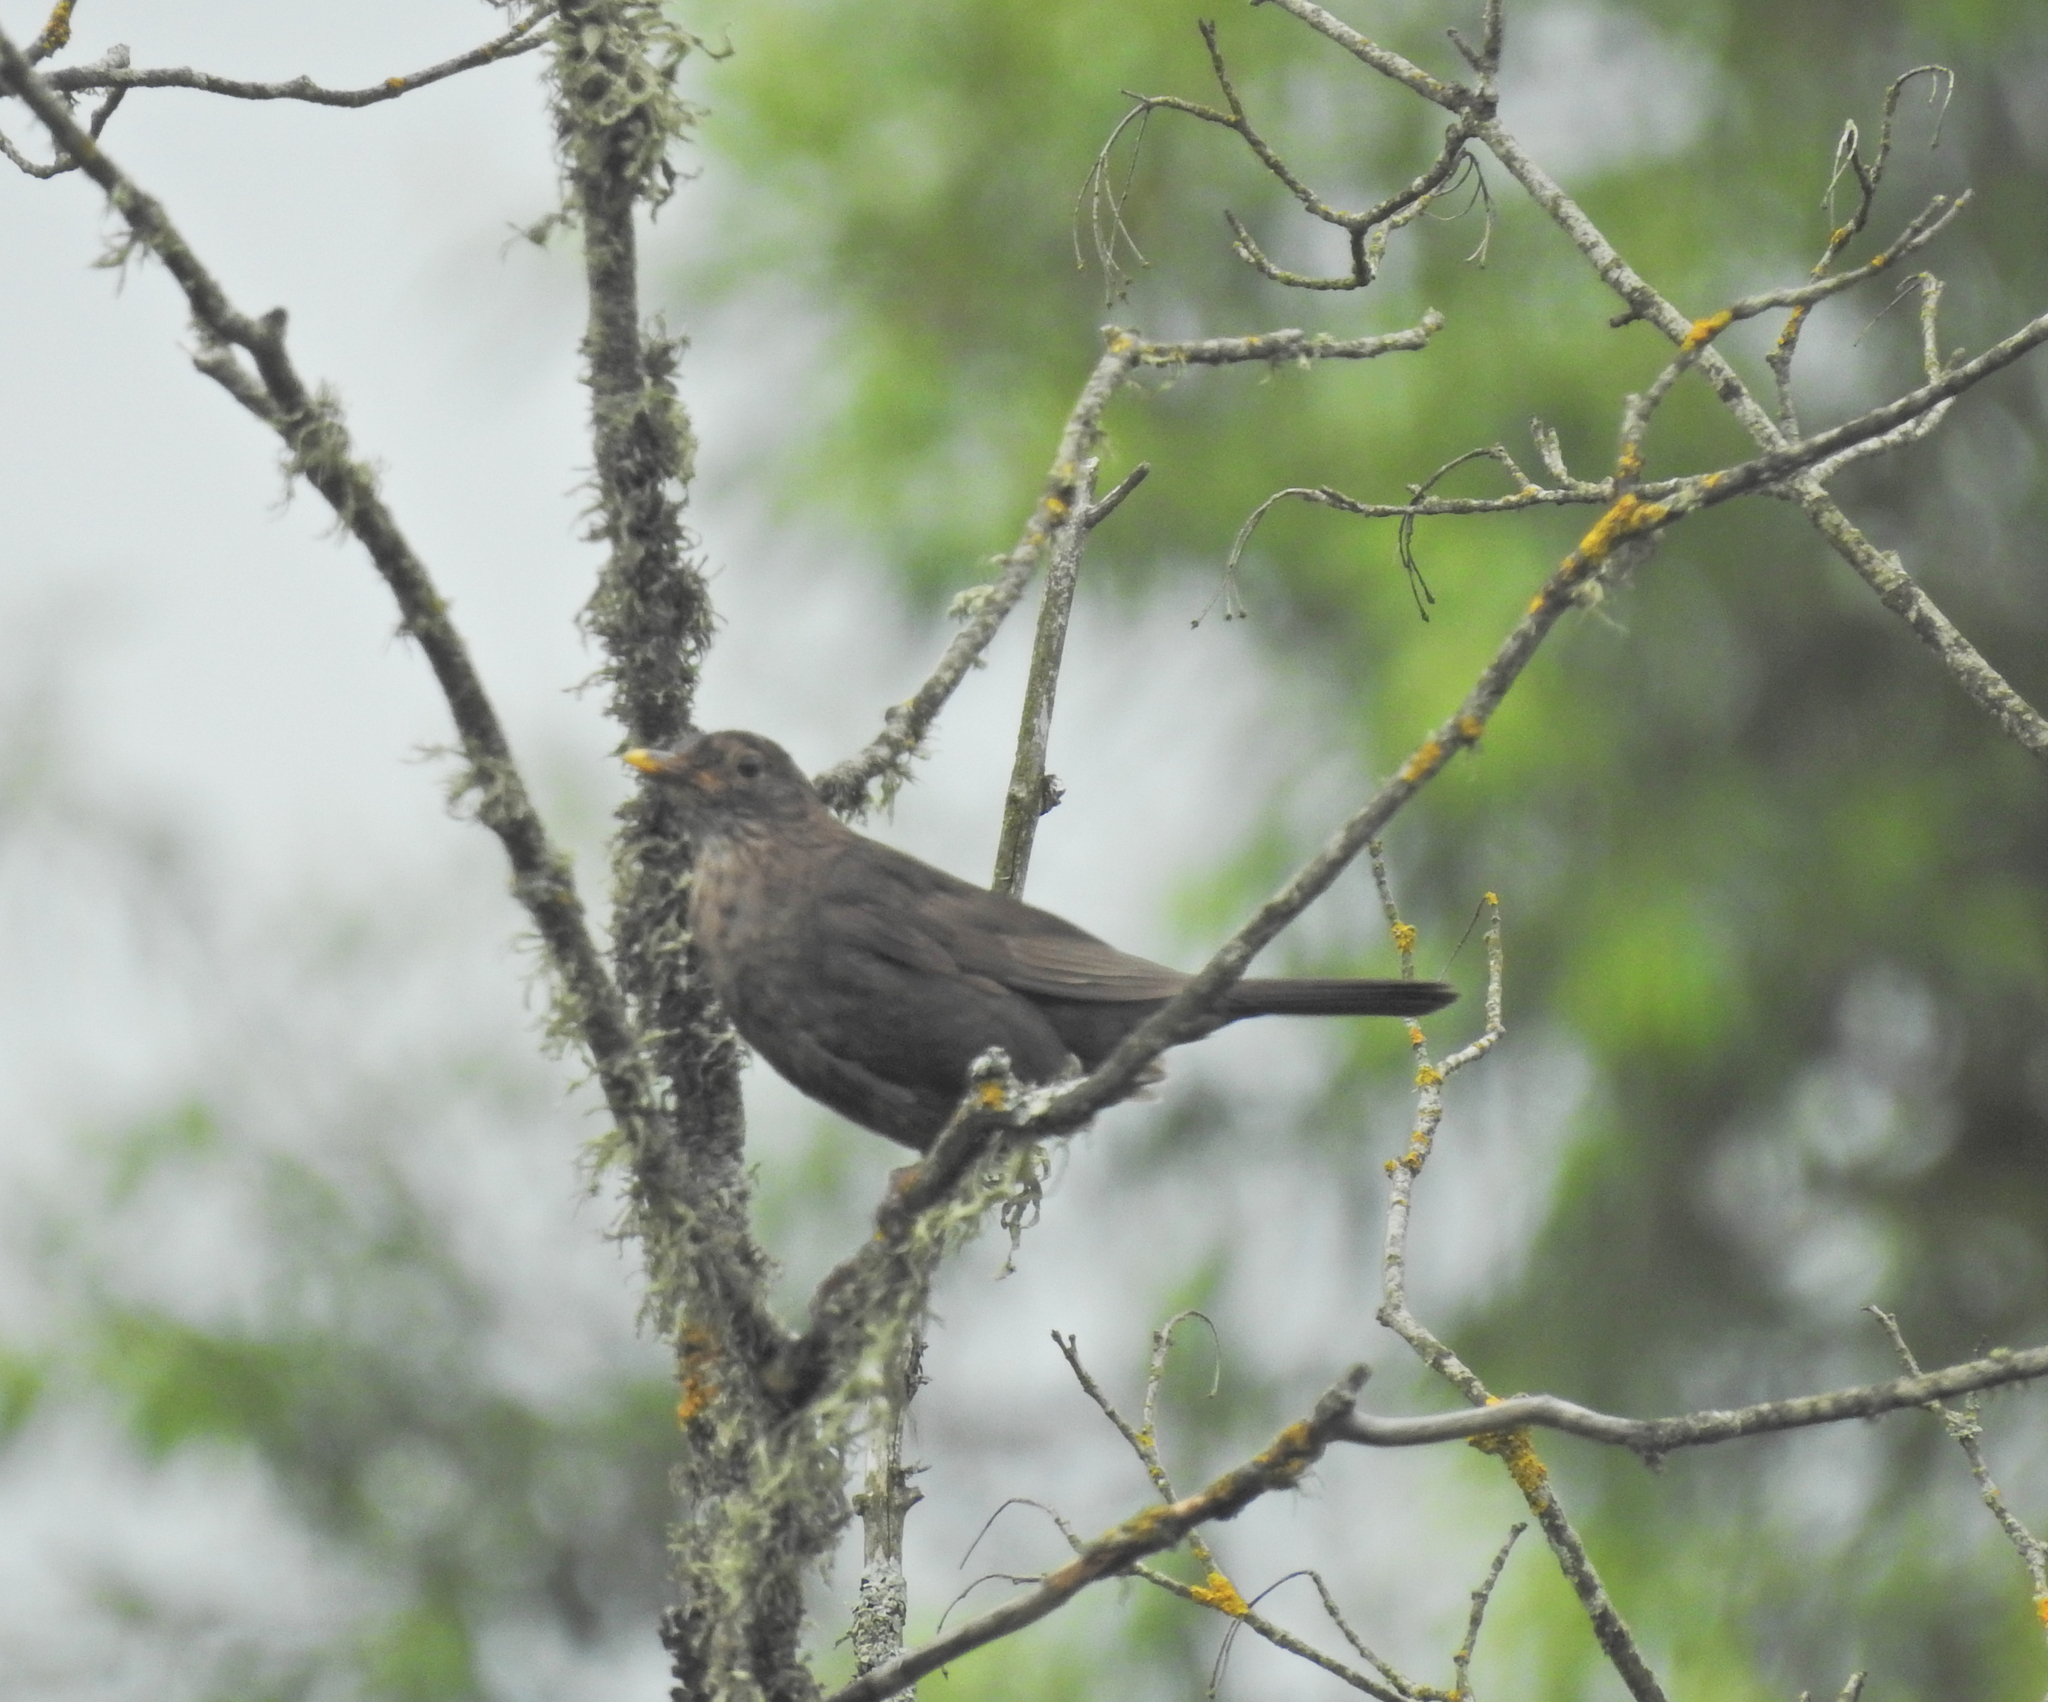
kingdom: Animalia
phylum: Chordata
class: Aves
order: Passeriformes
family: Turdidae
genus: Turdus
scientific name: Turdus merula
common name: Common blackbird
